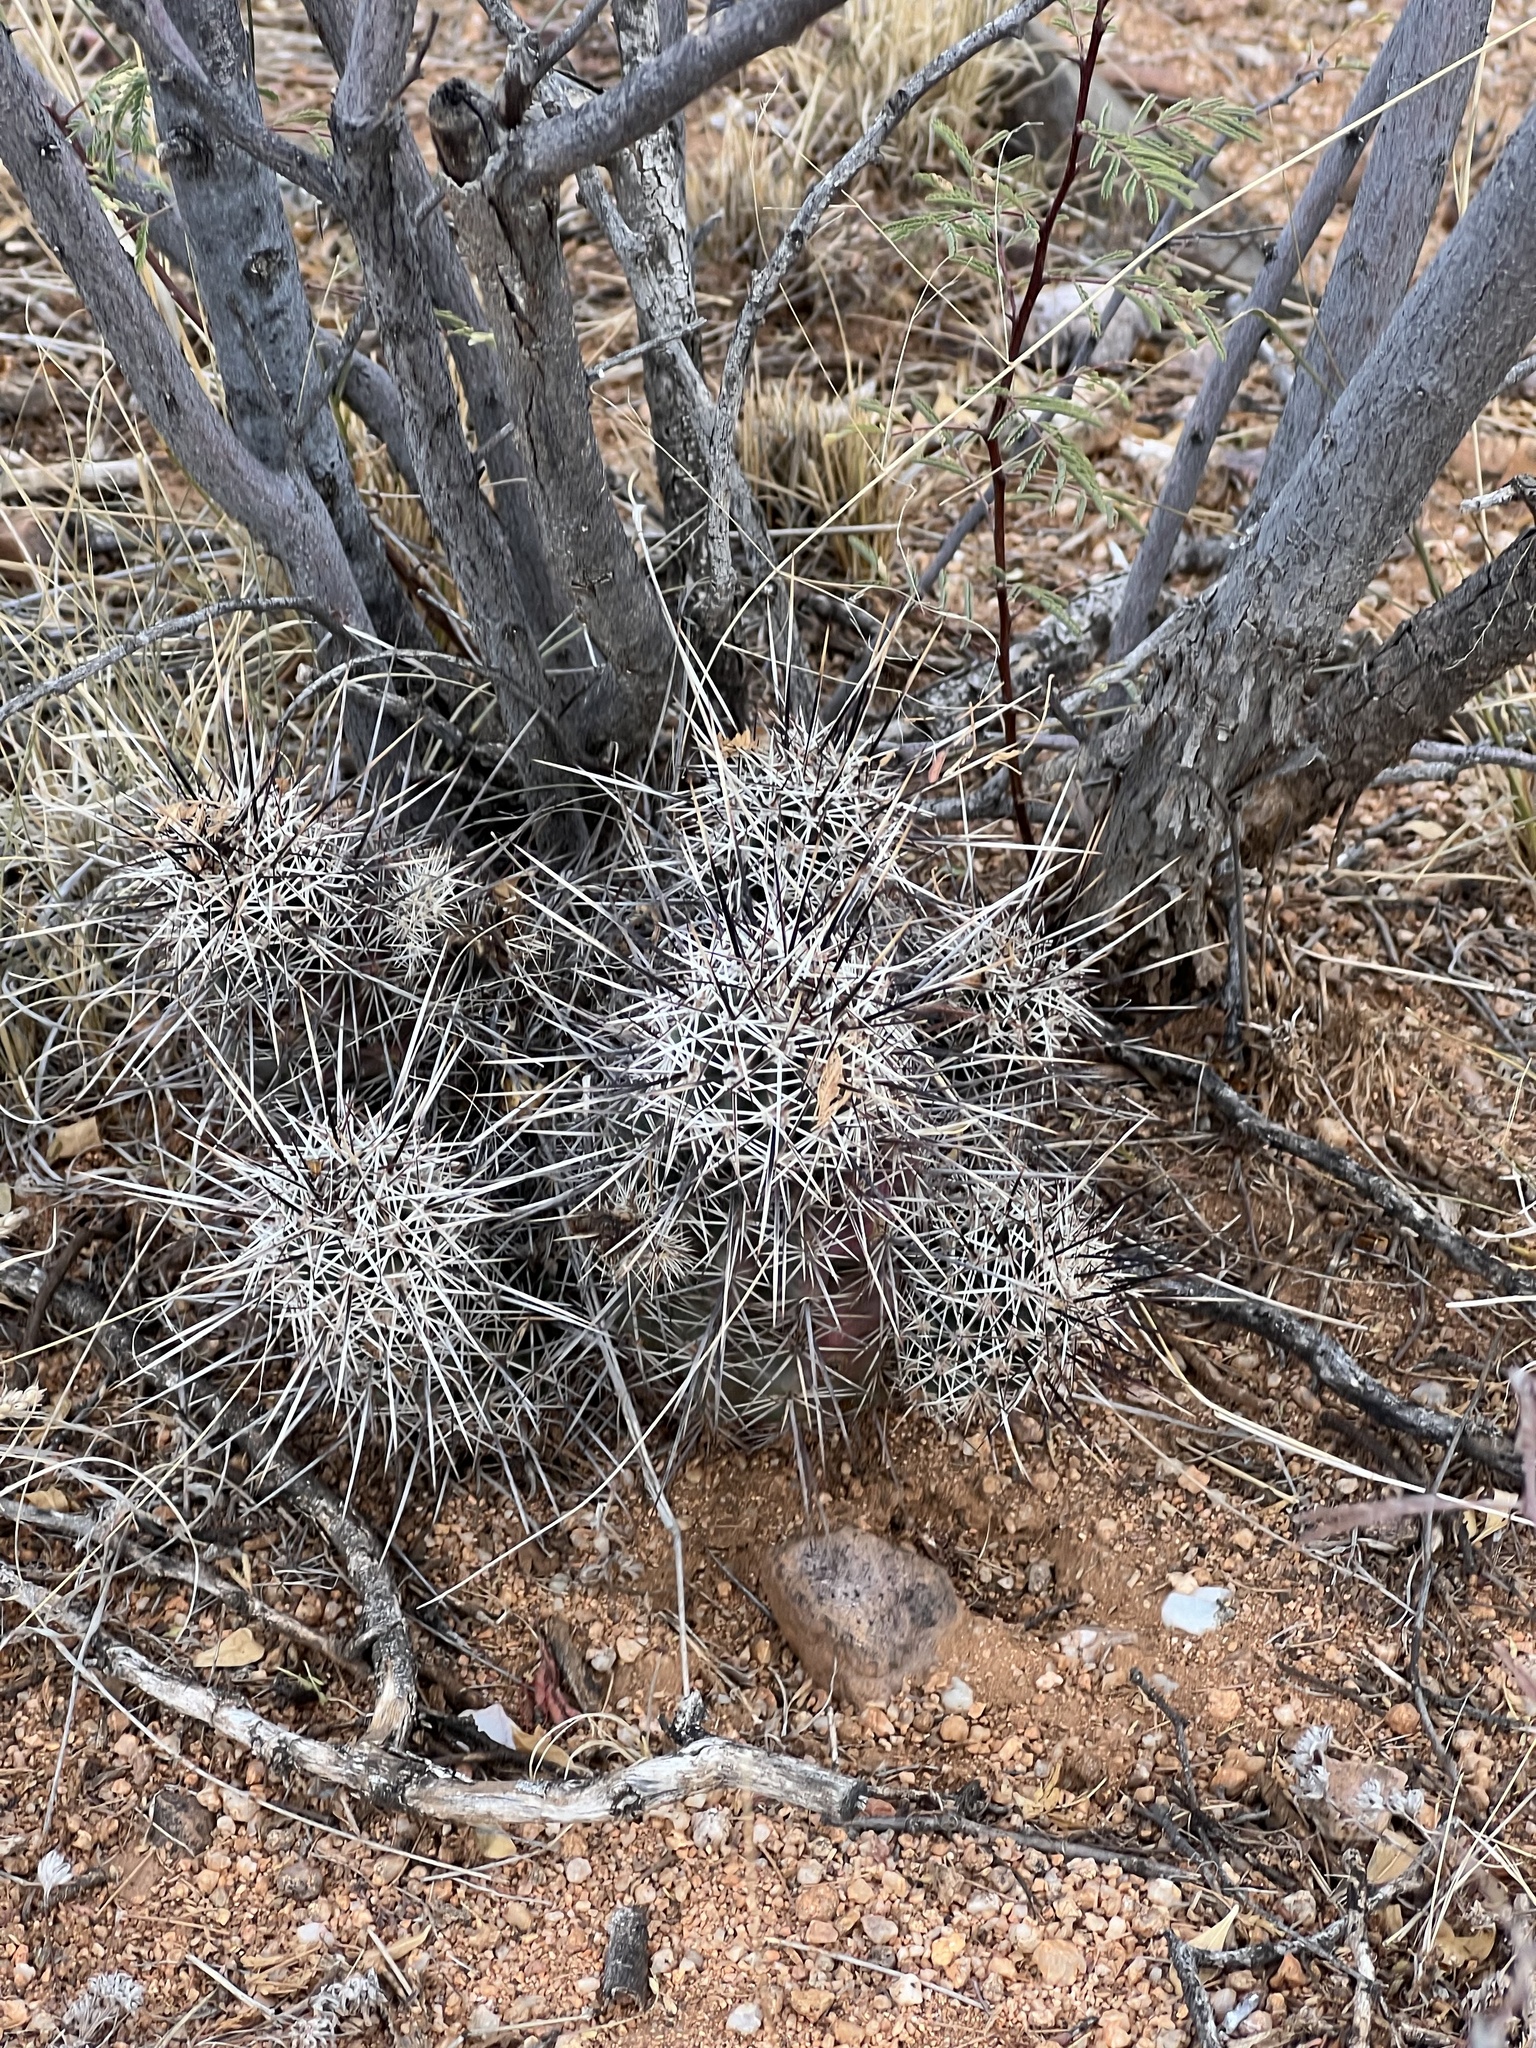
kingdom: Plantae
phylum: Tracheophyta
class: Magnoliopsida
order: Caryophyllales
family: Cactaceae
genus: Echinocereus
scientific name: Echinocereus fasciculatus
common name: Bundle hedgehog
